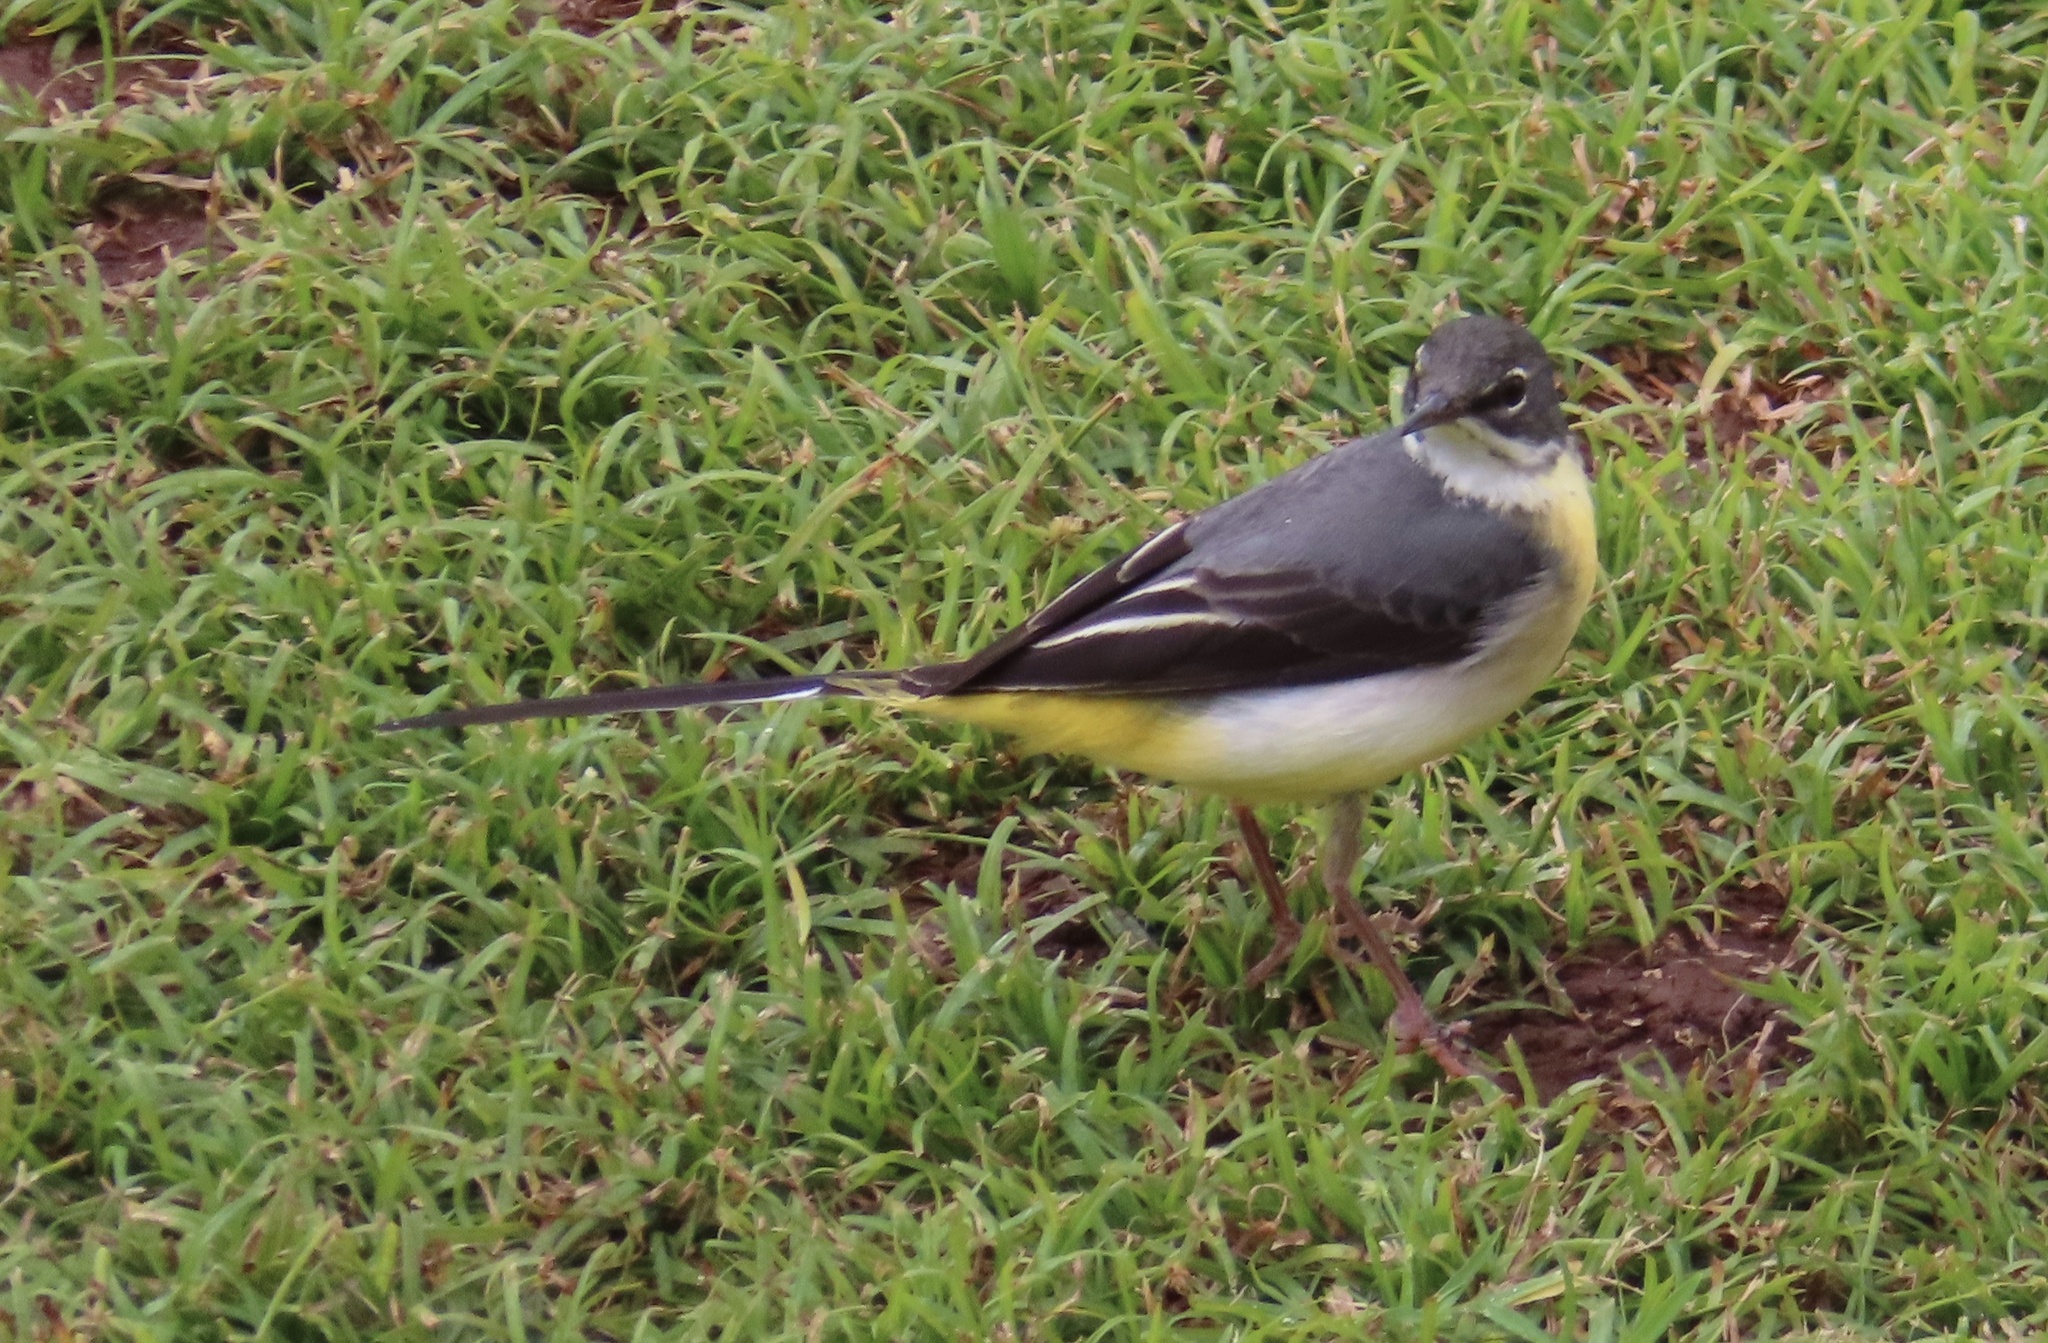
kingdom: Animalia
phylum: Chordata
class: Aves
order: Passeriformes
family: Motacillidae
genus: Motacilla
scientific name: Motacilla cinerea
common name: Grey wagtail
